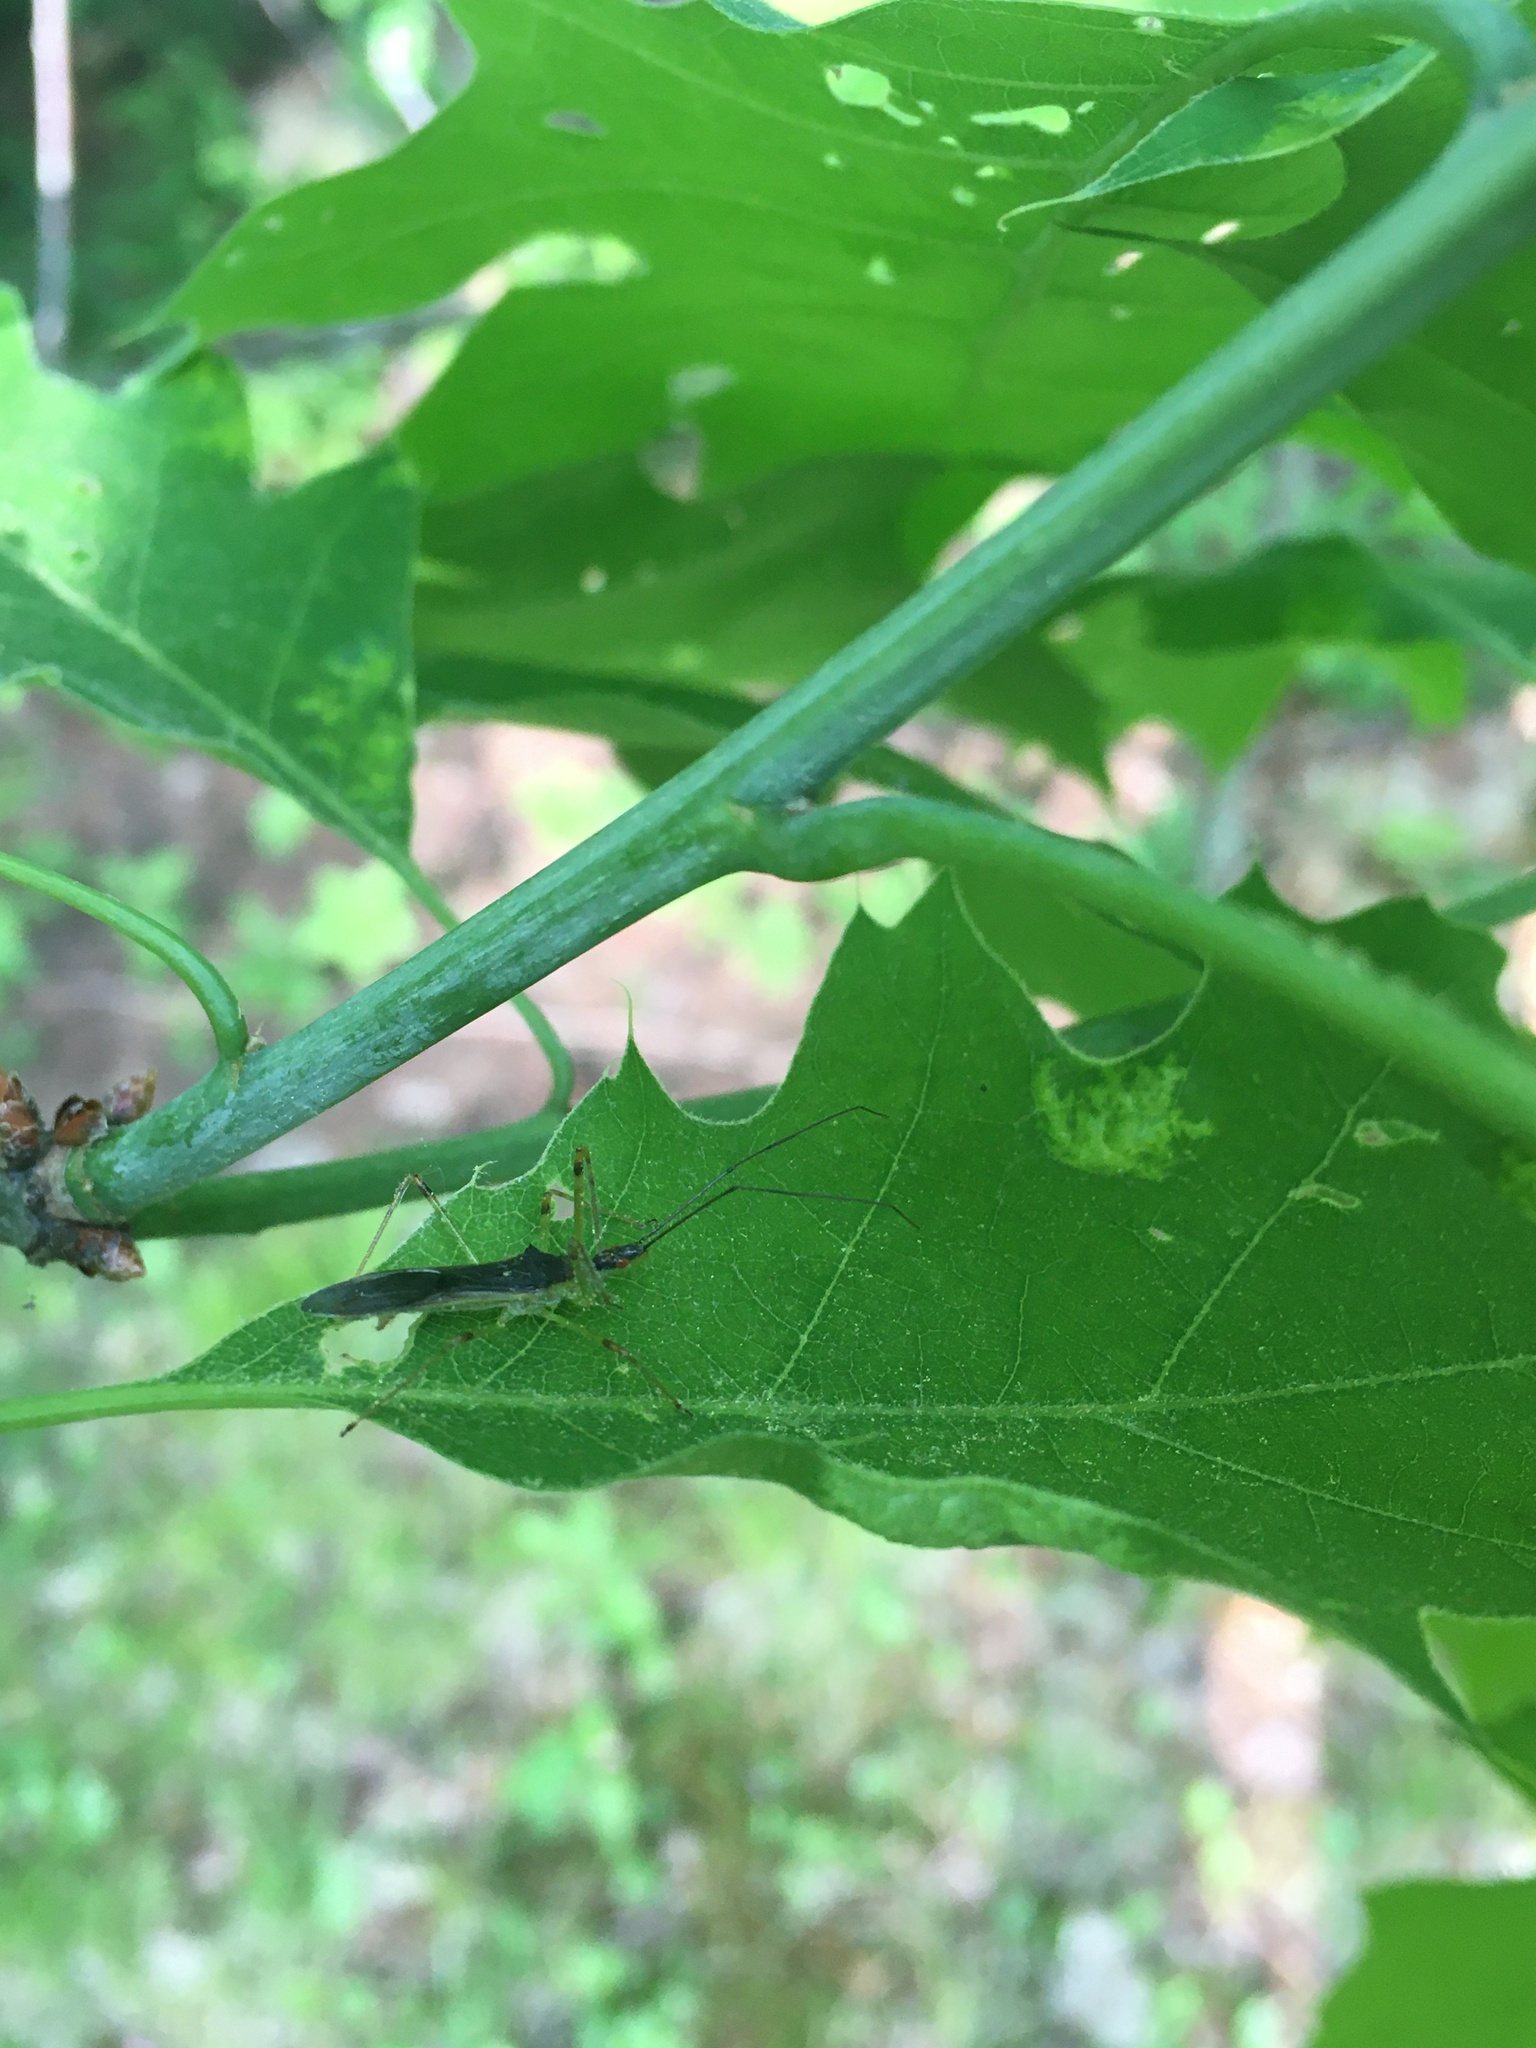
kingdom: Animalia
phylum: Arthropoda
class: Insecta
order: Hemiptera
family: Reduviidae
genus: Zelus
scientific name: Zelus luridus
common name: Pale green assassin bug
